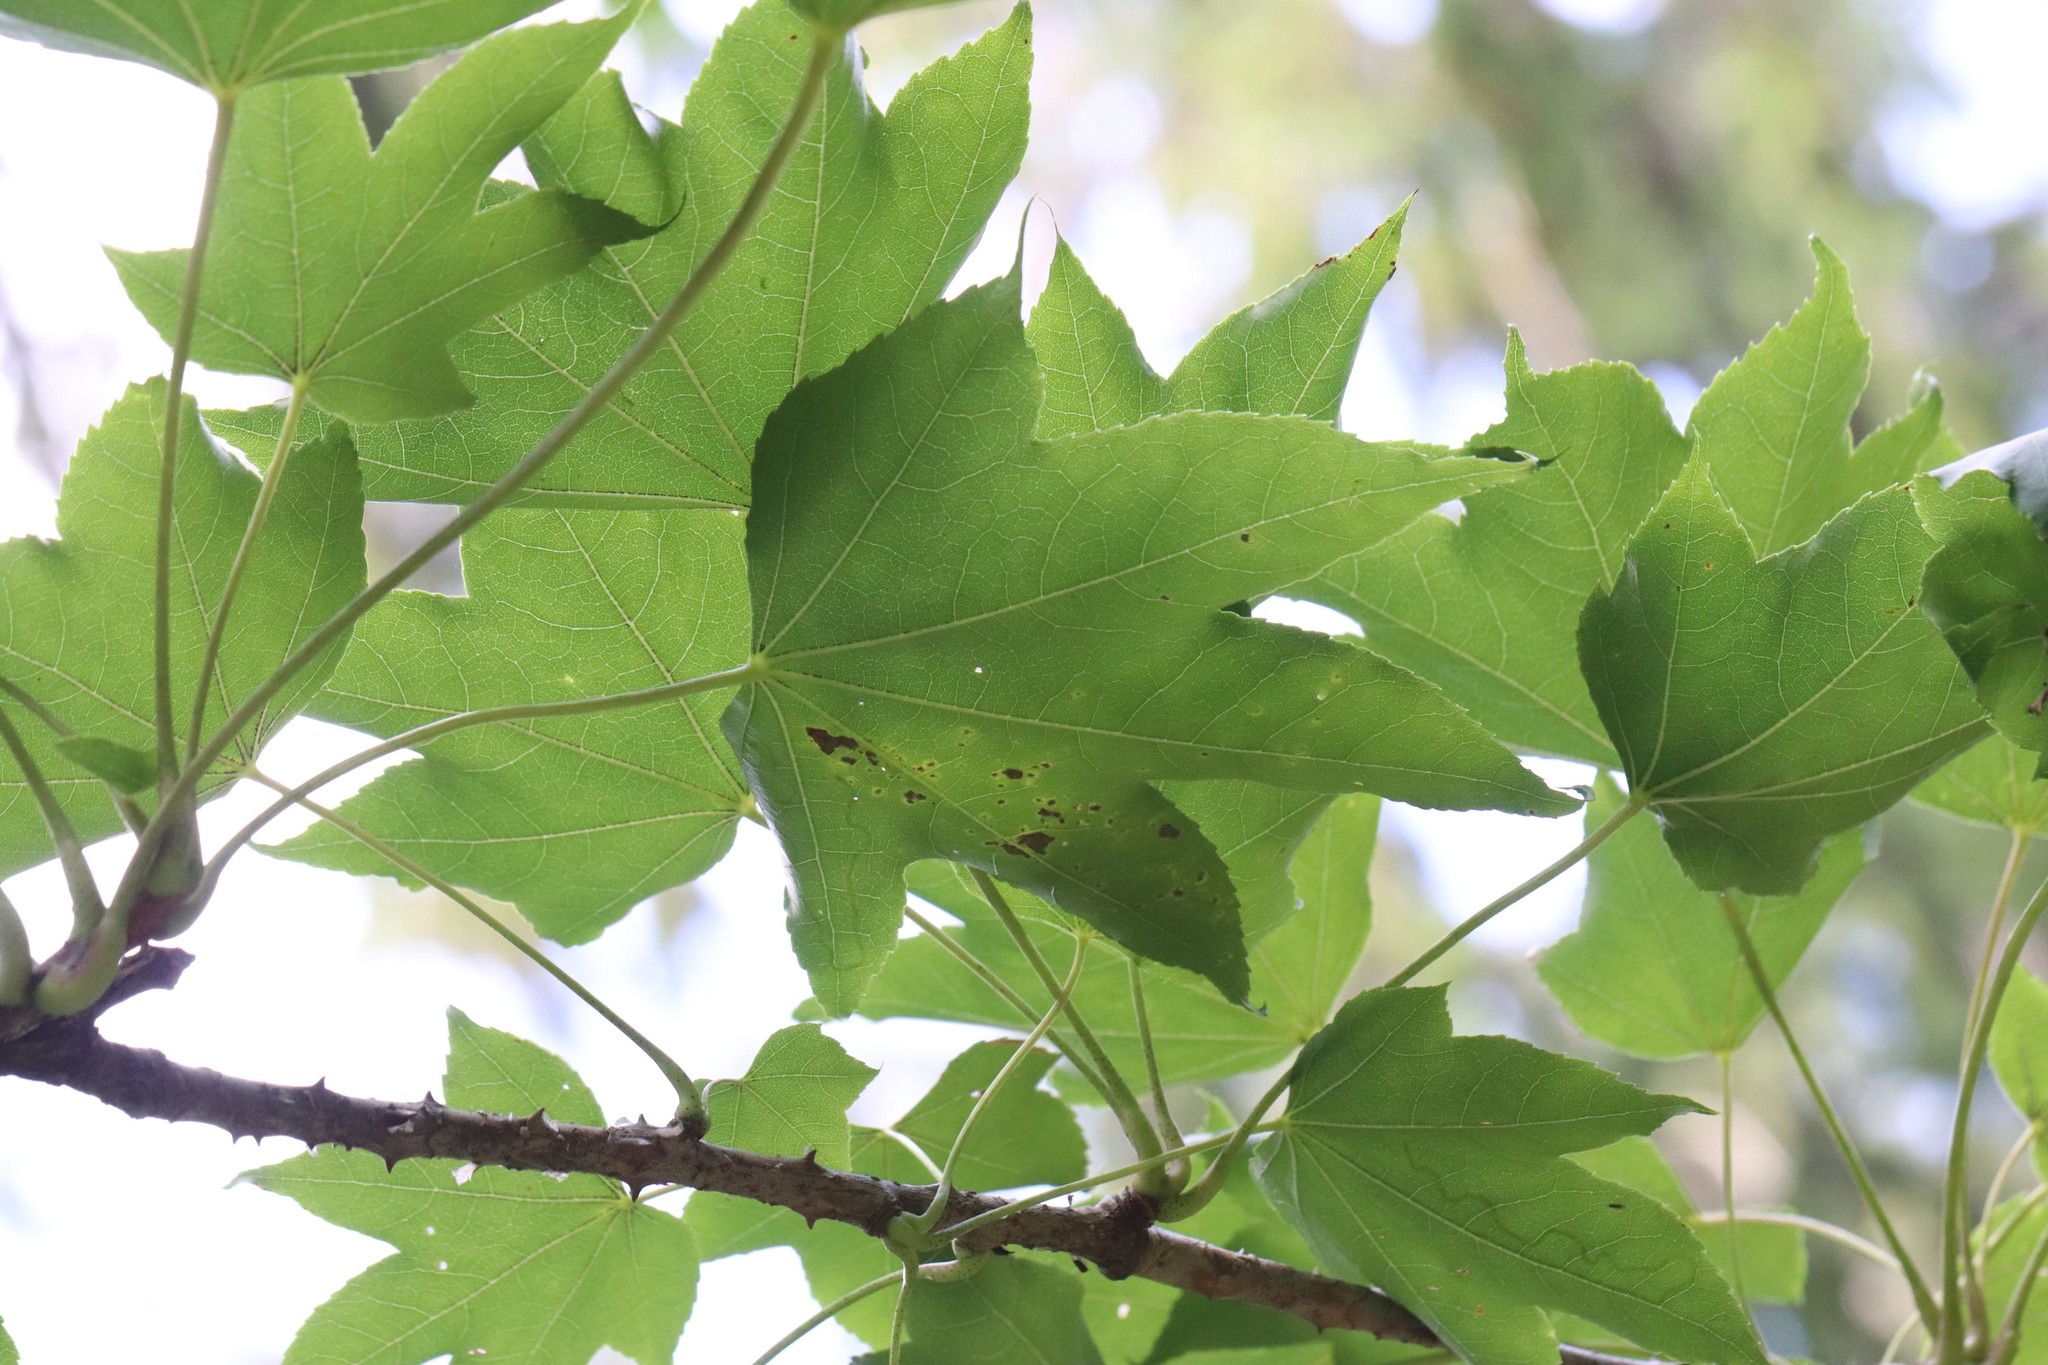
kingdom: Plantae
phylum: Tracheophyta
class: Magnoliopsida
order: Apiales
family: Araliaceae
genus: Kalopanax
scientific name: Kalopanax septemlobus
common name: Castor aralia
